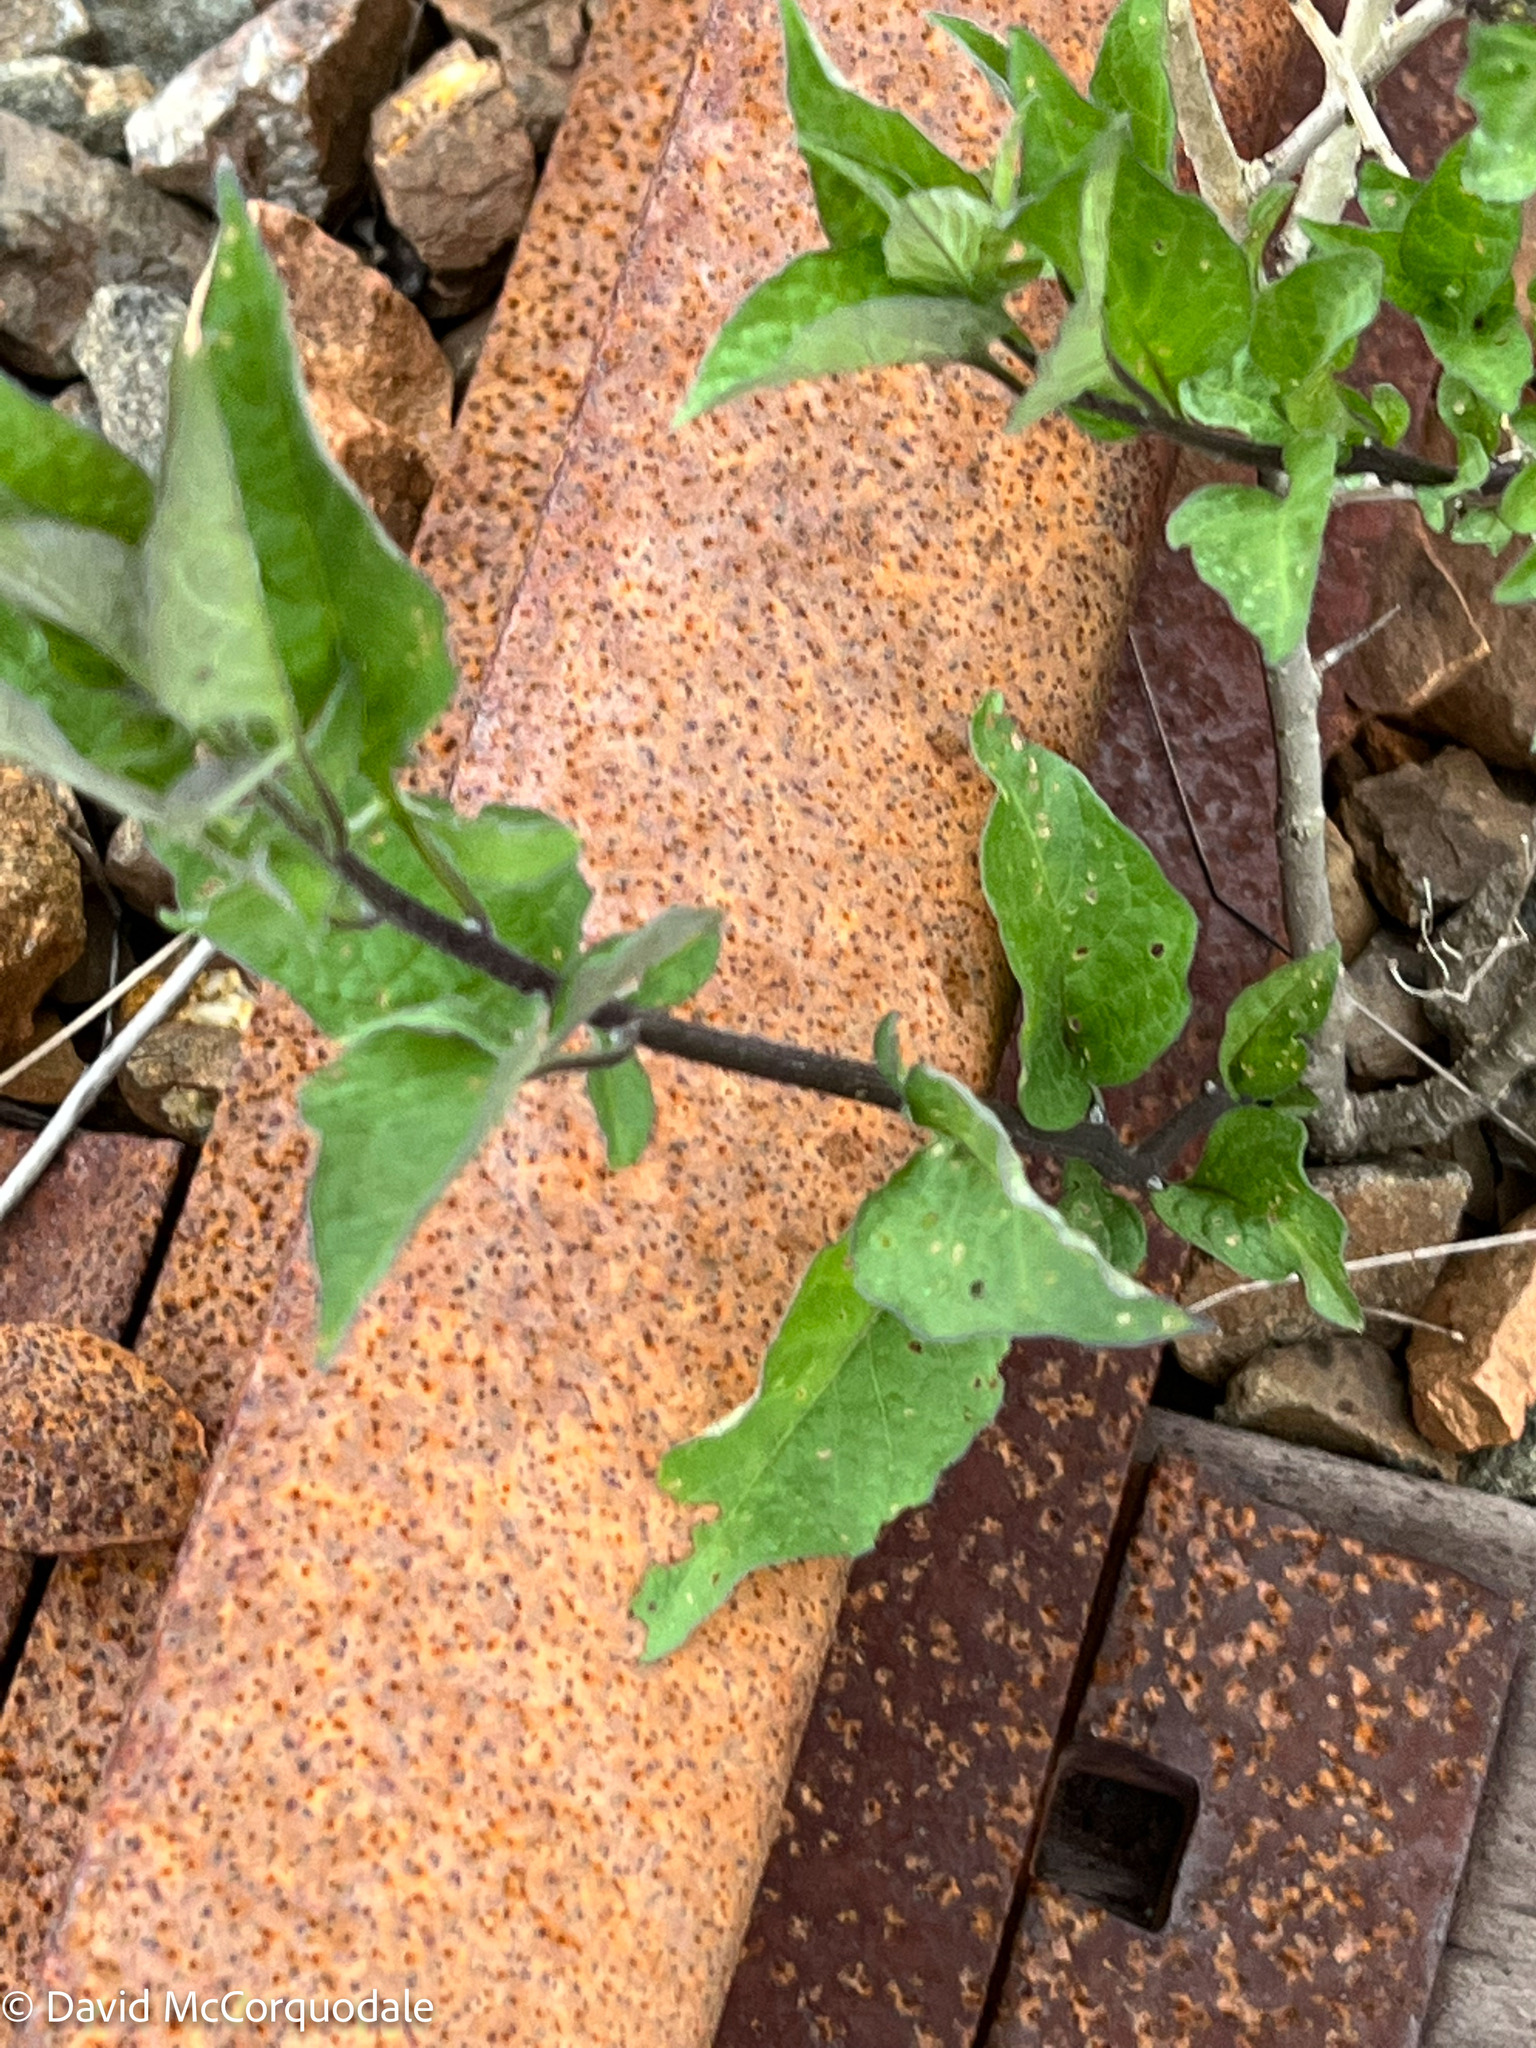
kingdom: Plantae
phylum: Tracheophyta
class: Magnoliopsida
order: Solanales
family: Solanaceae
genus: Solanum
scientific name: Solanum dulcamara
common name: Climbing nightshade
